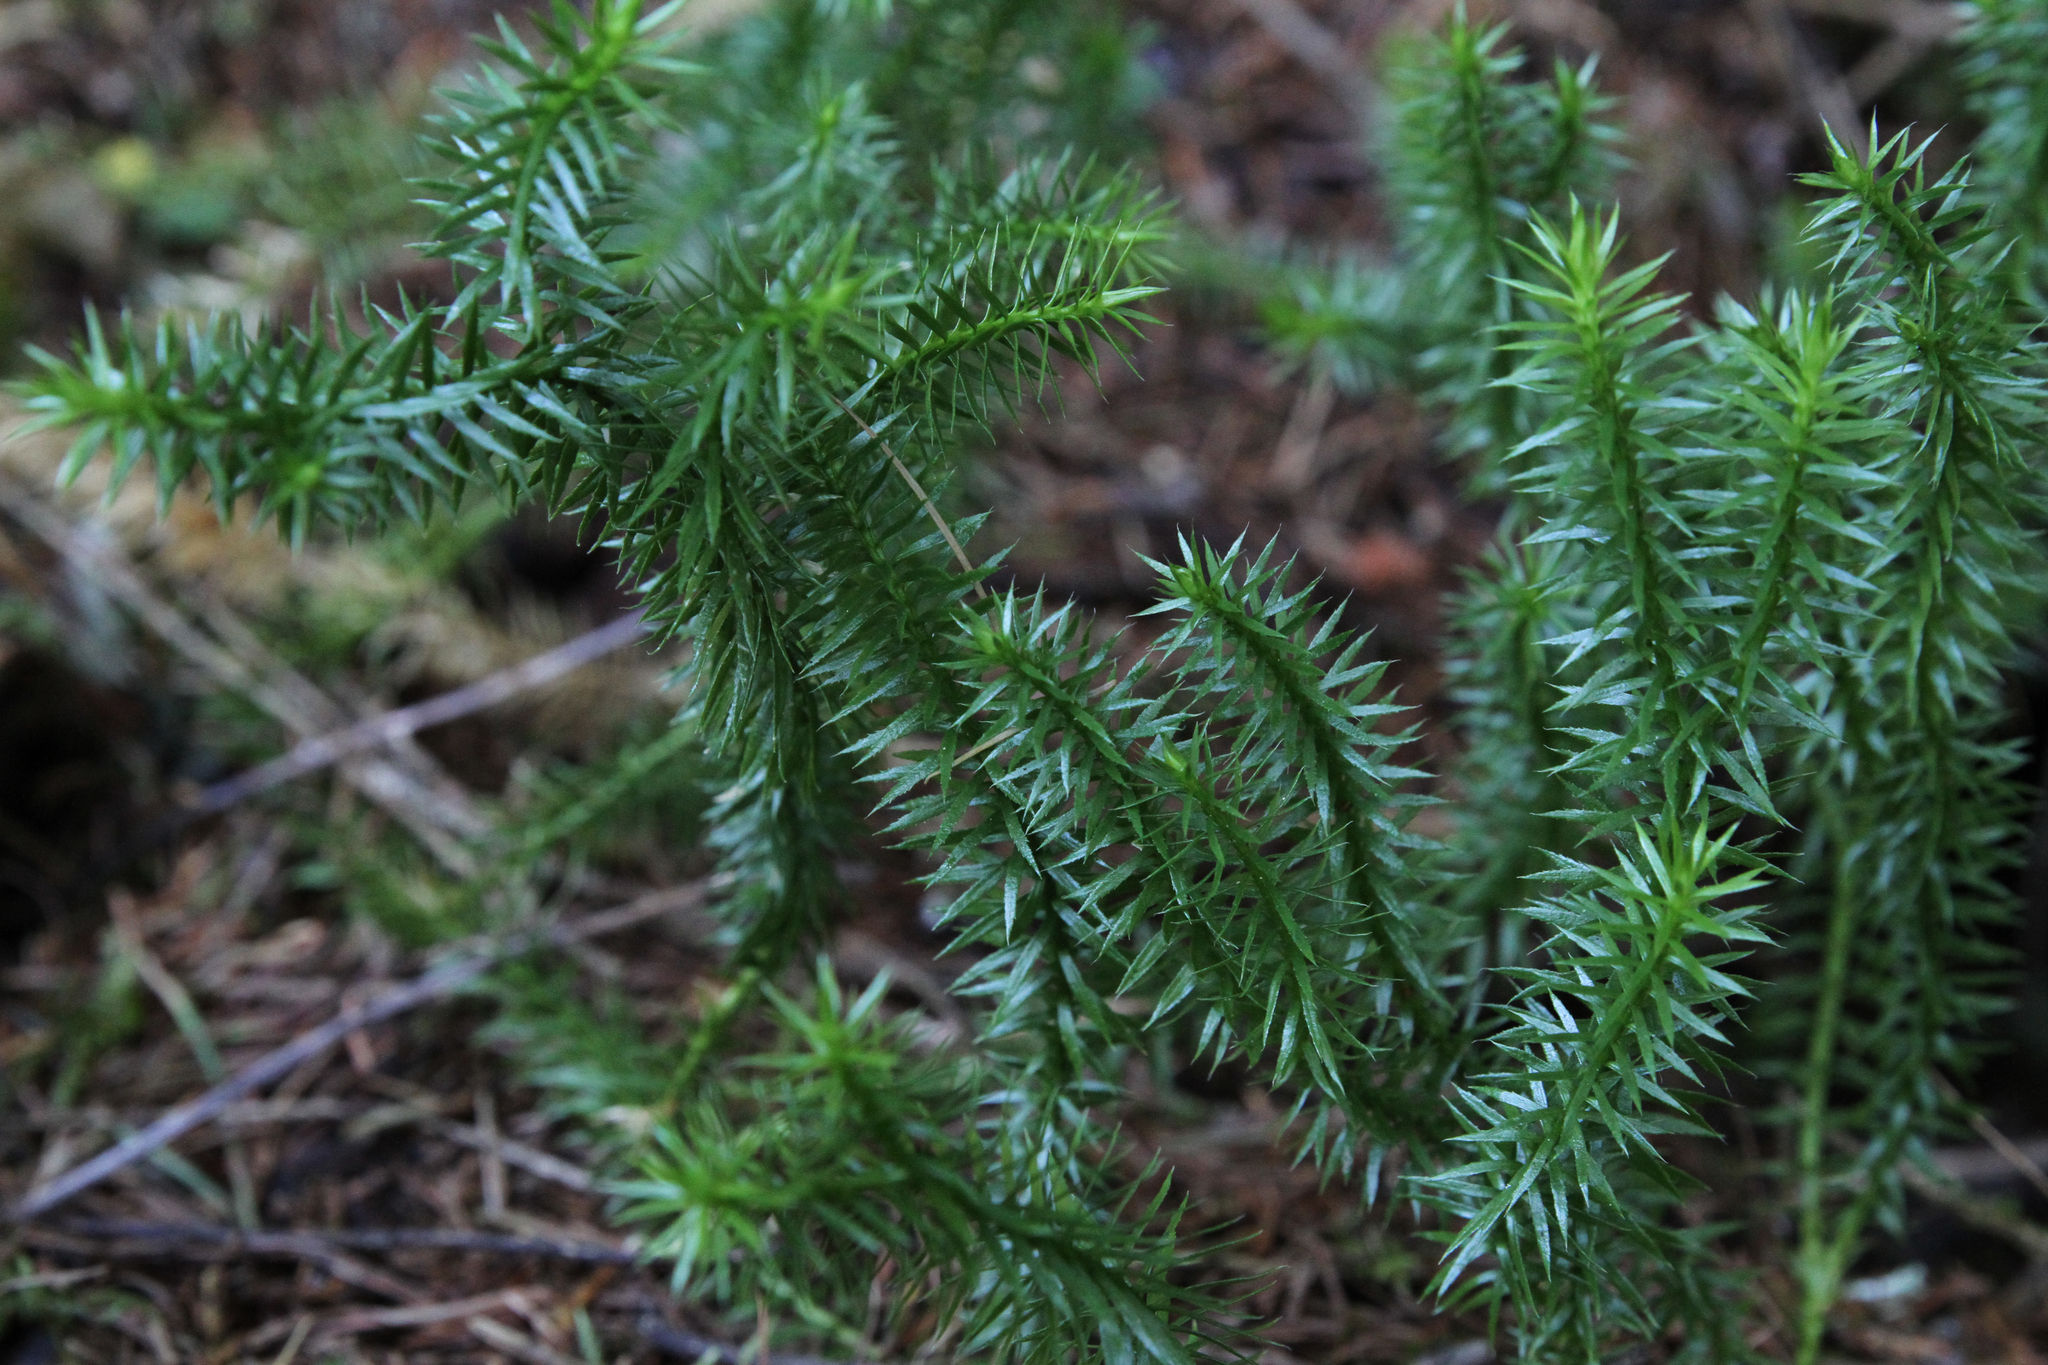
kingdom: Plantae
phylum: Tracheophyta
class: Lycopodiopsida
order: Lycopodiales
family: Lycopodiaceae
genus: Spinulum
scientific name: Spinulum annotinum
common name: Interrupted club-moss
